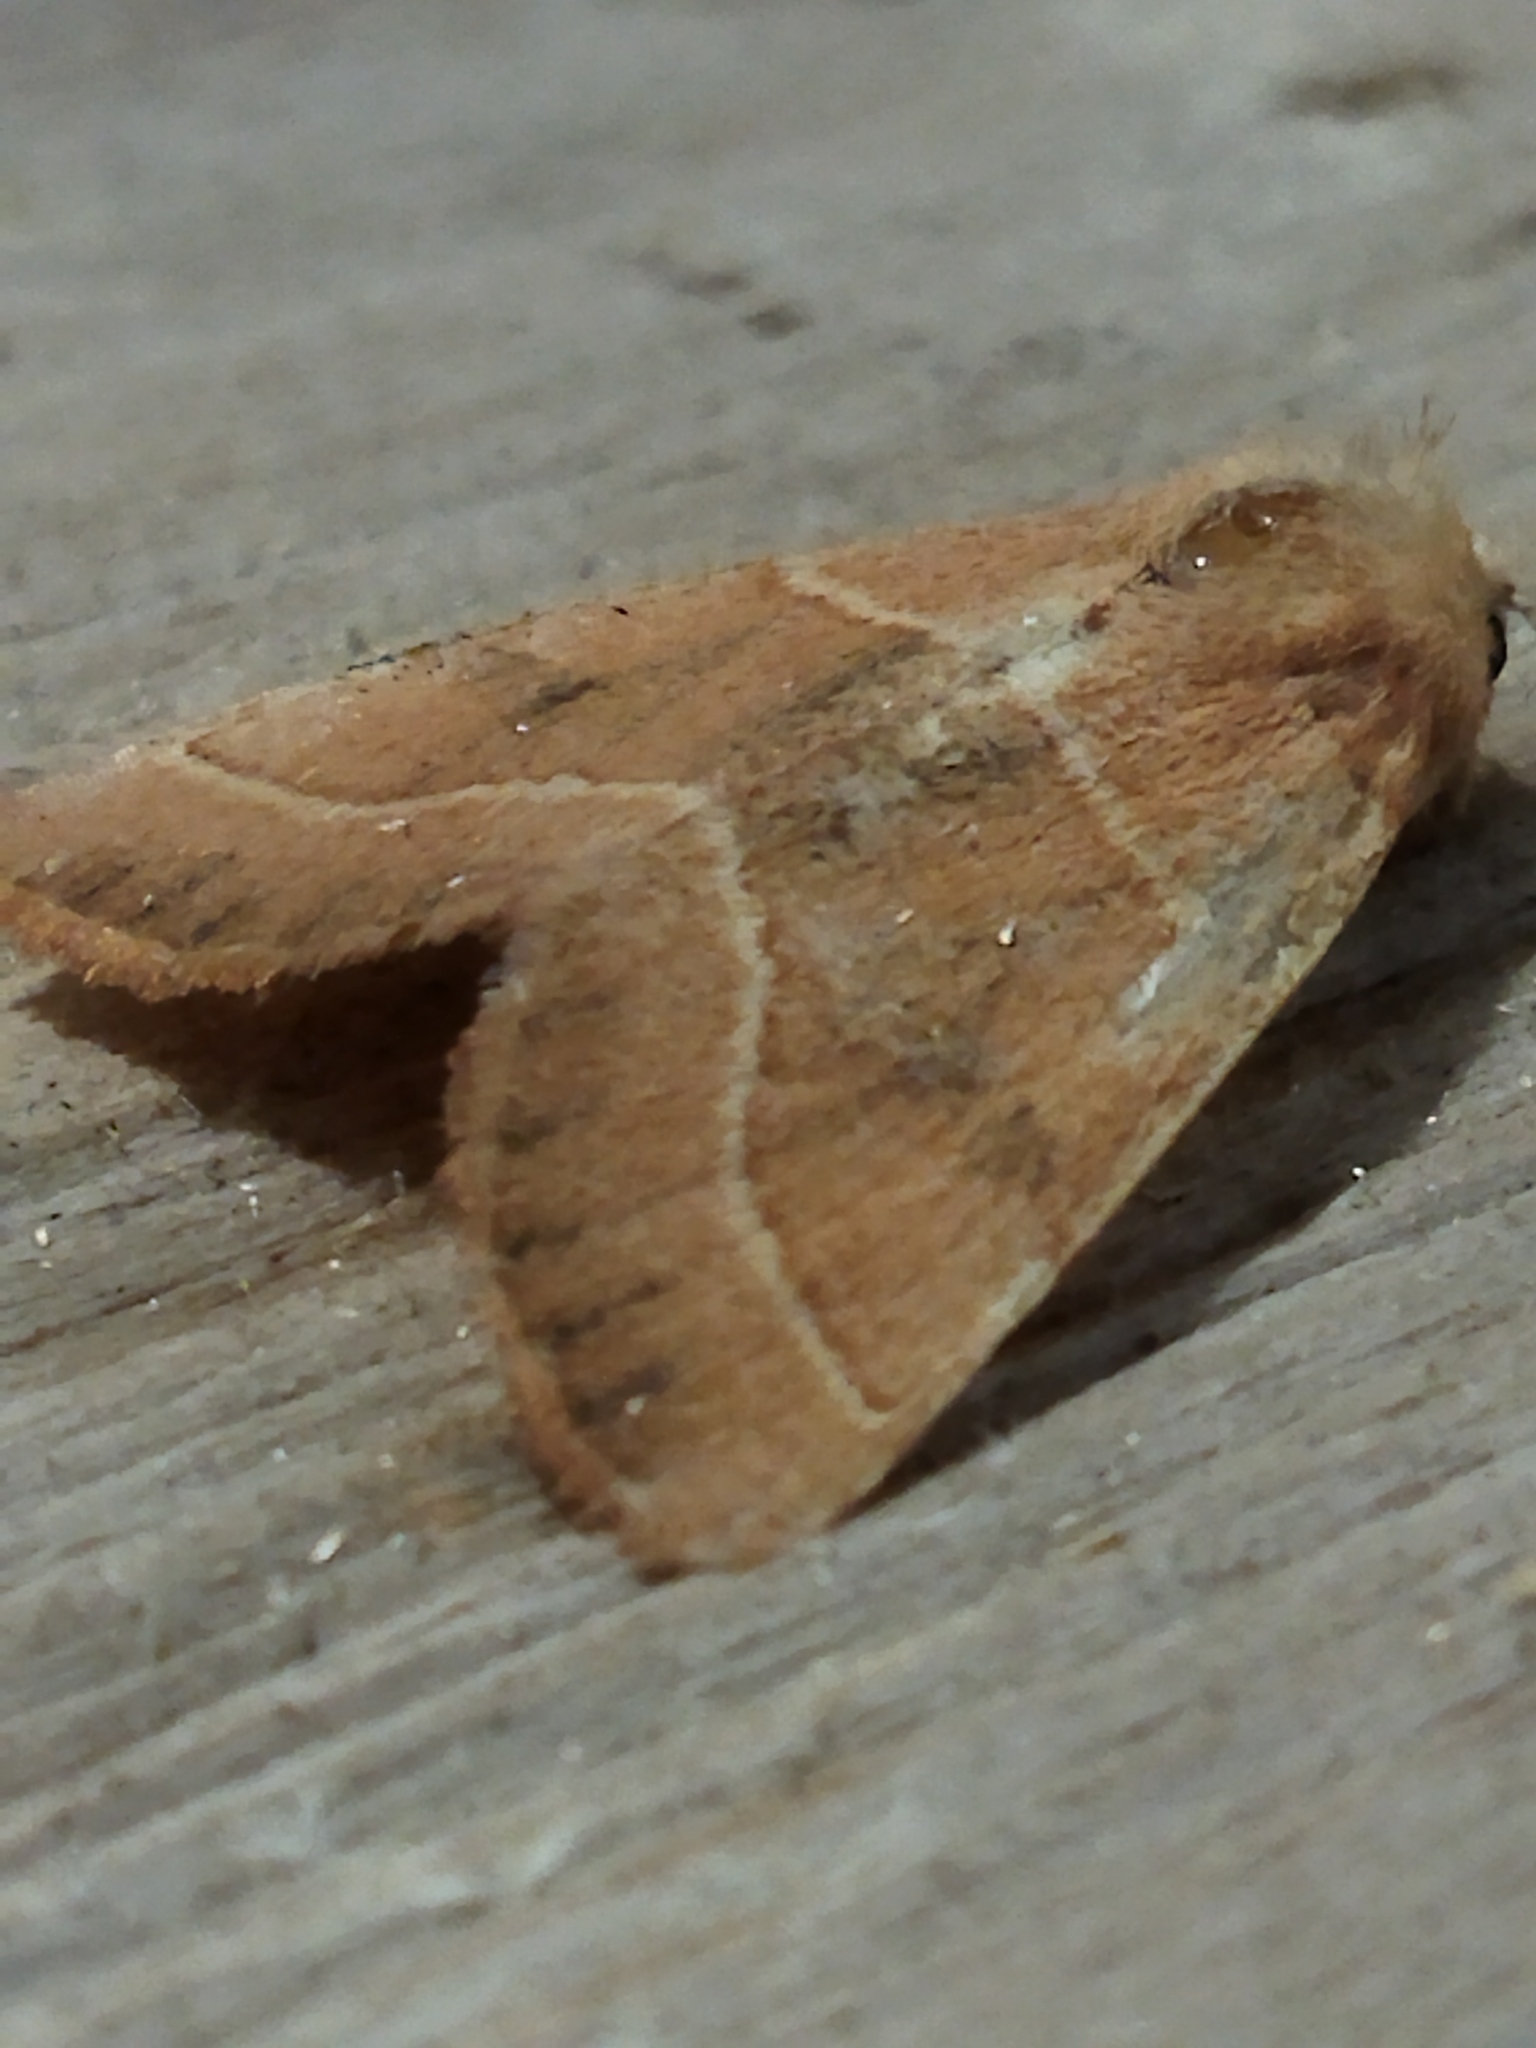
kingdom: Animalia
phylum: Arthropoda
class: Insecta
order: Lepidoptera
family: Noctuidae
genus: Atethmia
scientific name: Atethmia centrago
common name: Centre-barred sallow
